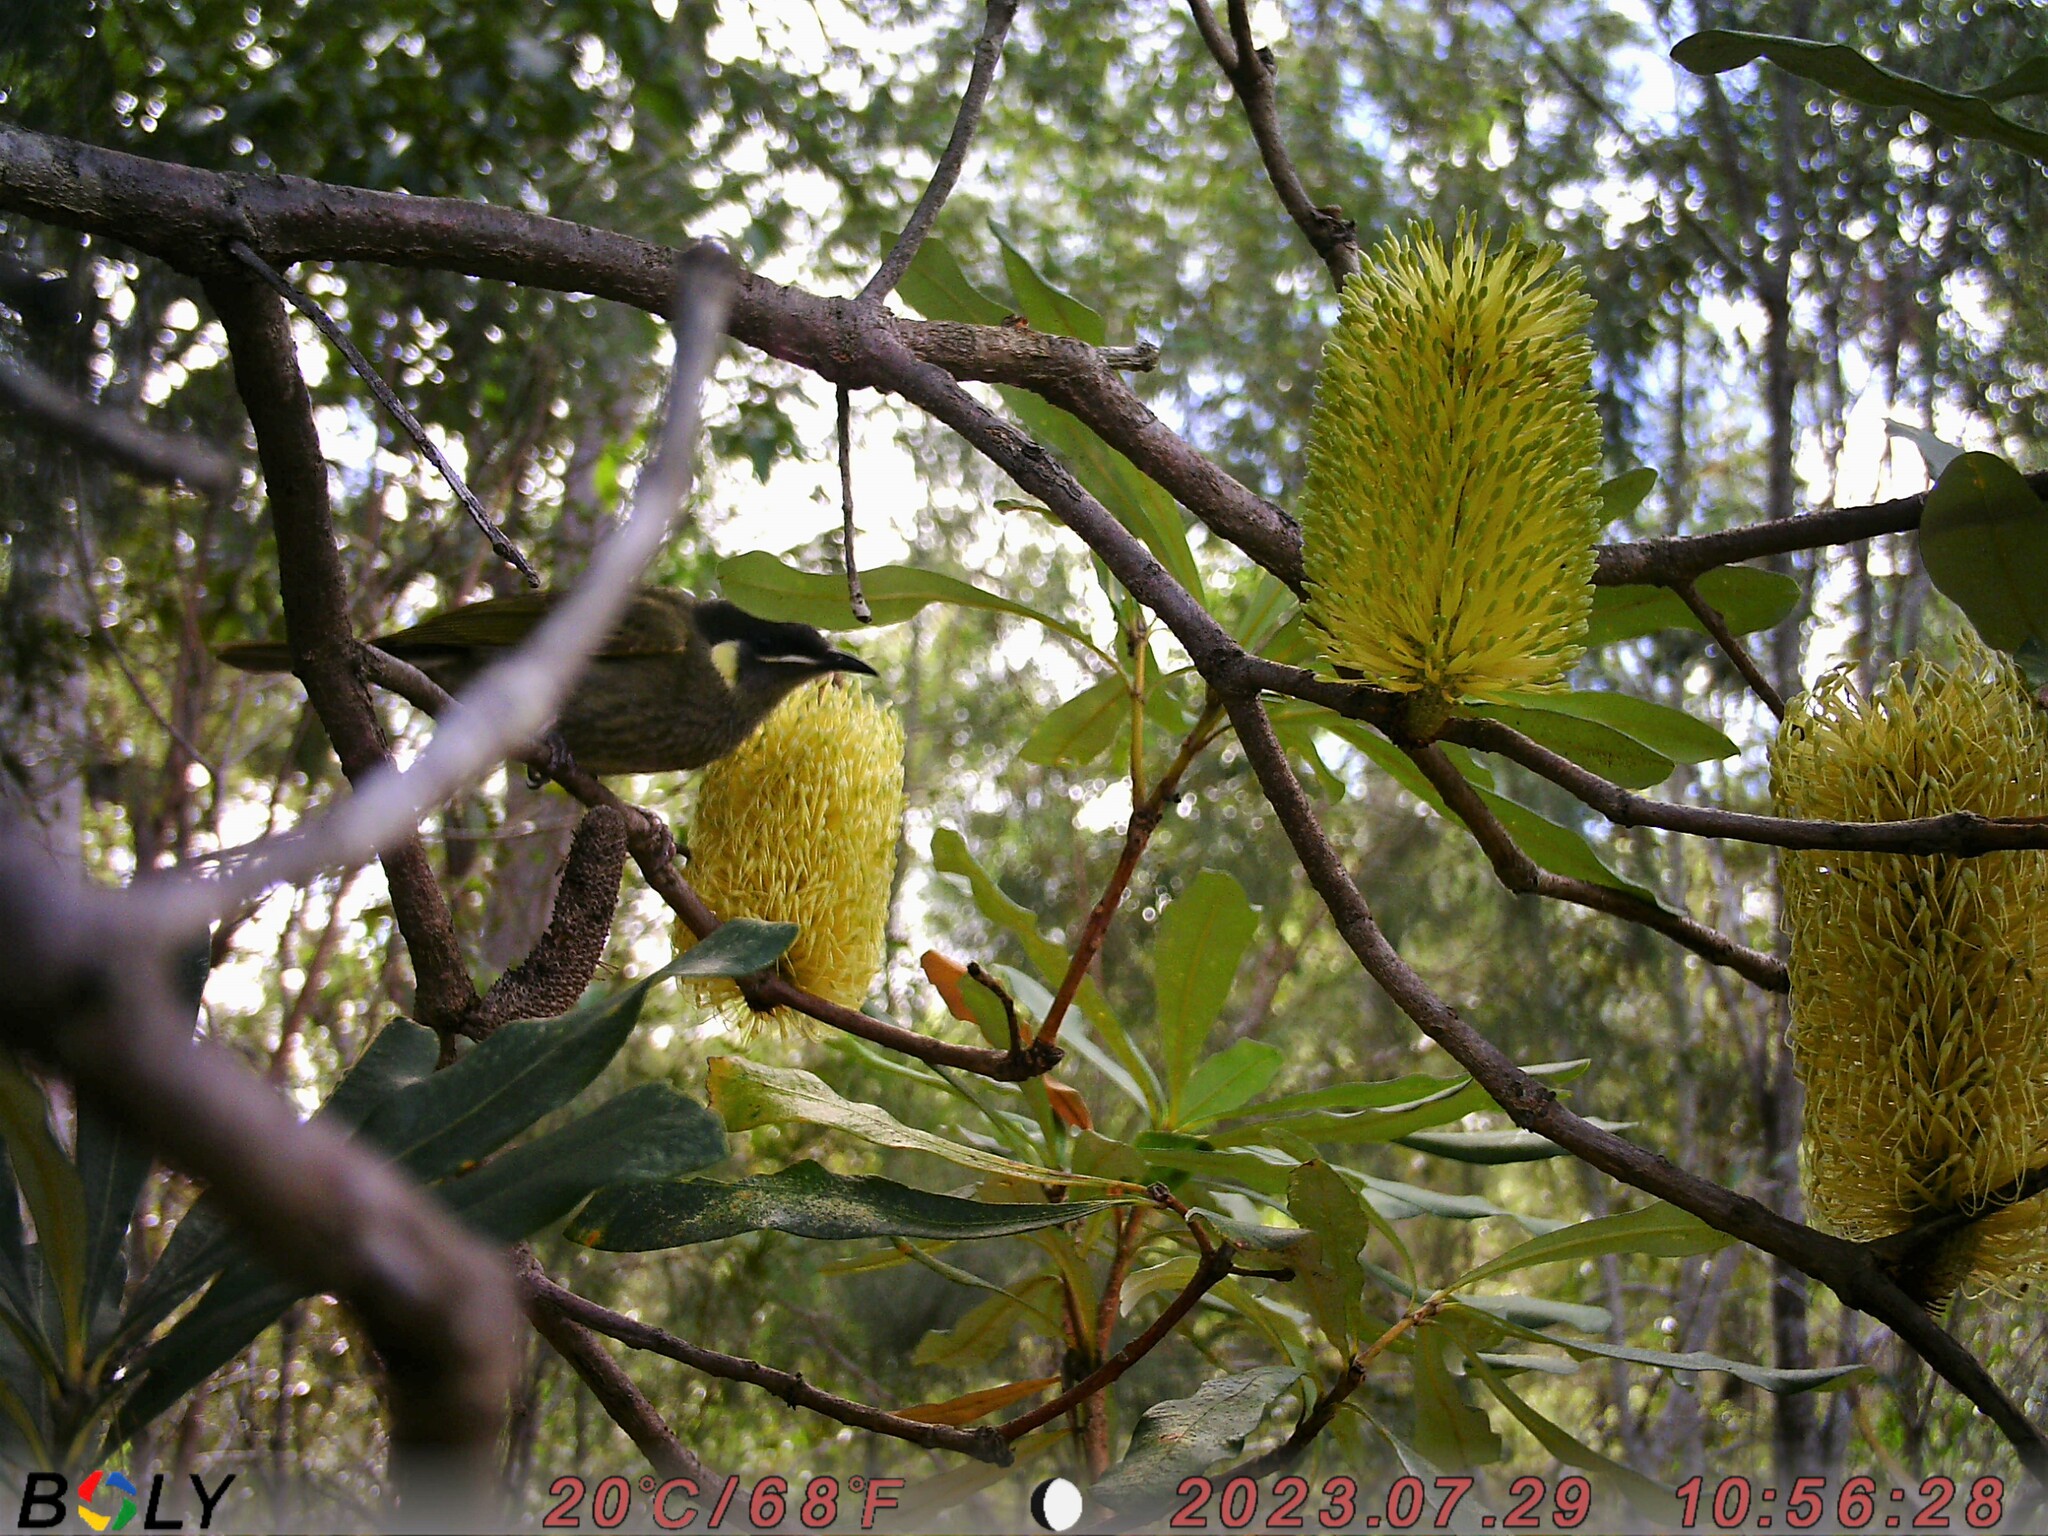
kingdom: Animalia
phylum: Chordata
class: Aves
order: Passeriformes
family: Meliphagidae
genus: Meliphaga
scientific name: Meliphaga lewinii
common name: Lewin's honeyeater
